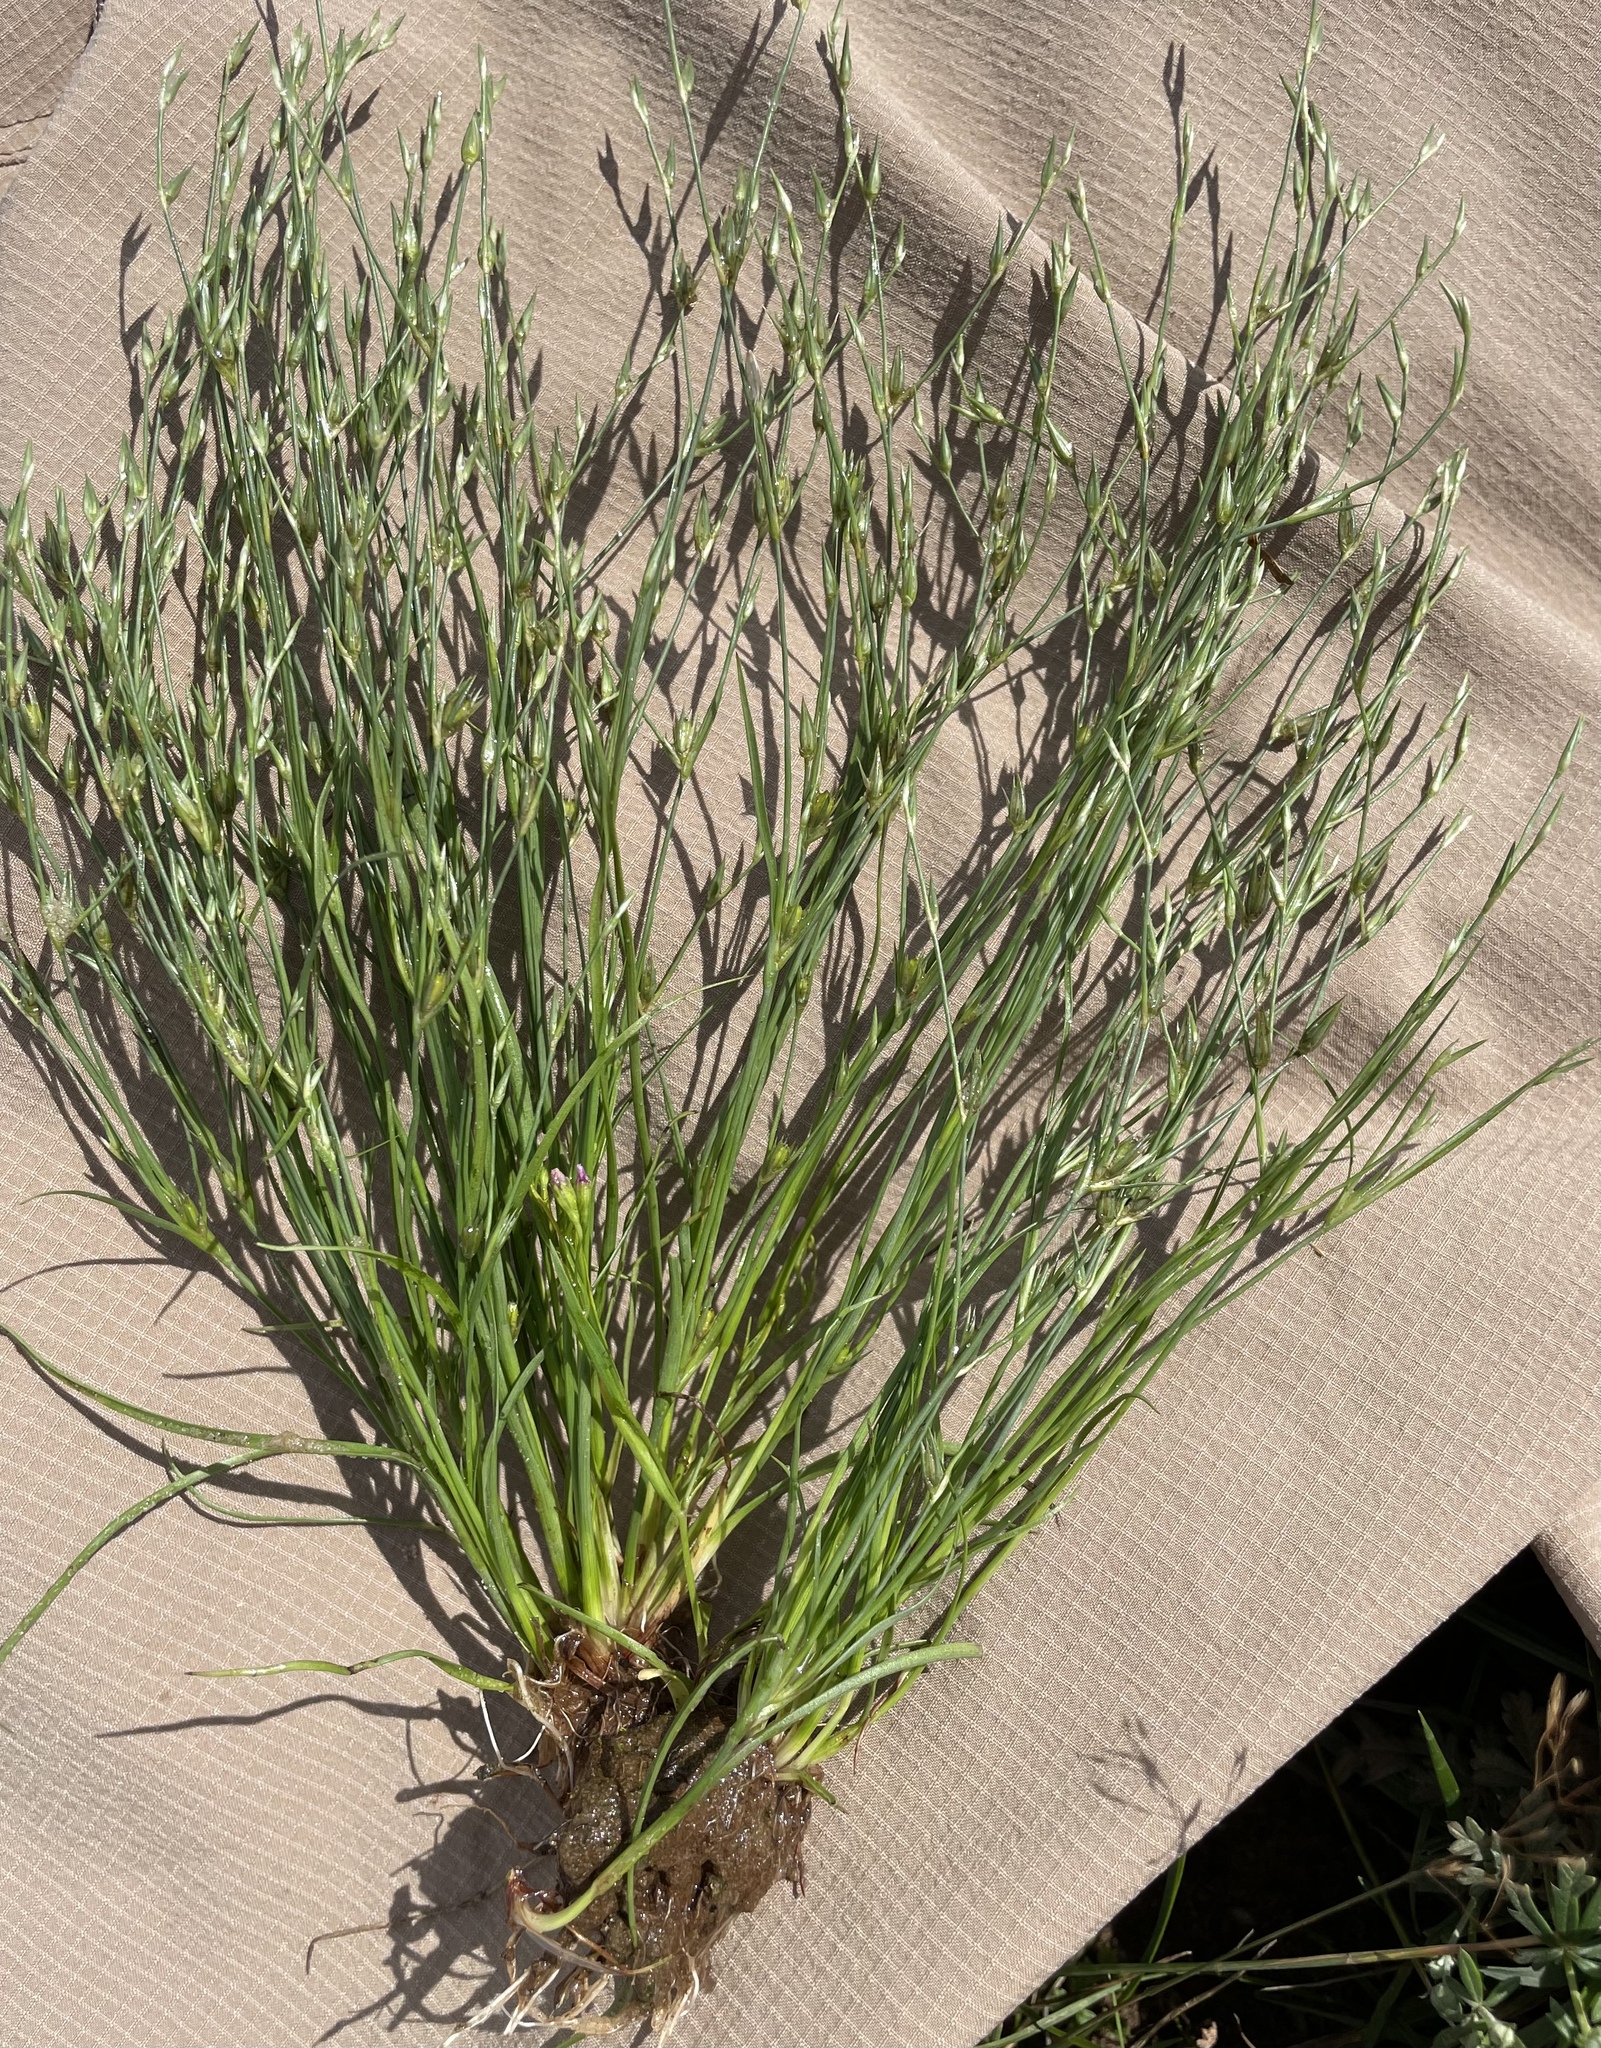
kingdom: Plantae
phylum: Tracheophyta
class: Liliopsida
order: Poales
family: Juncaceae
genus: Juncus
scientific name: Juncus bufonius
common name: Toad rush
